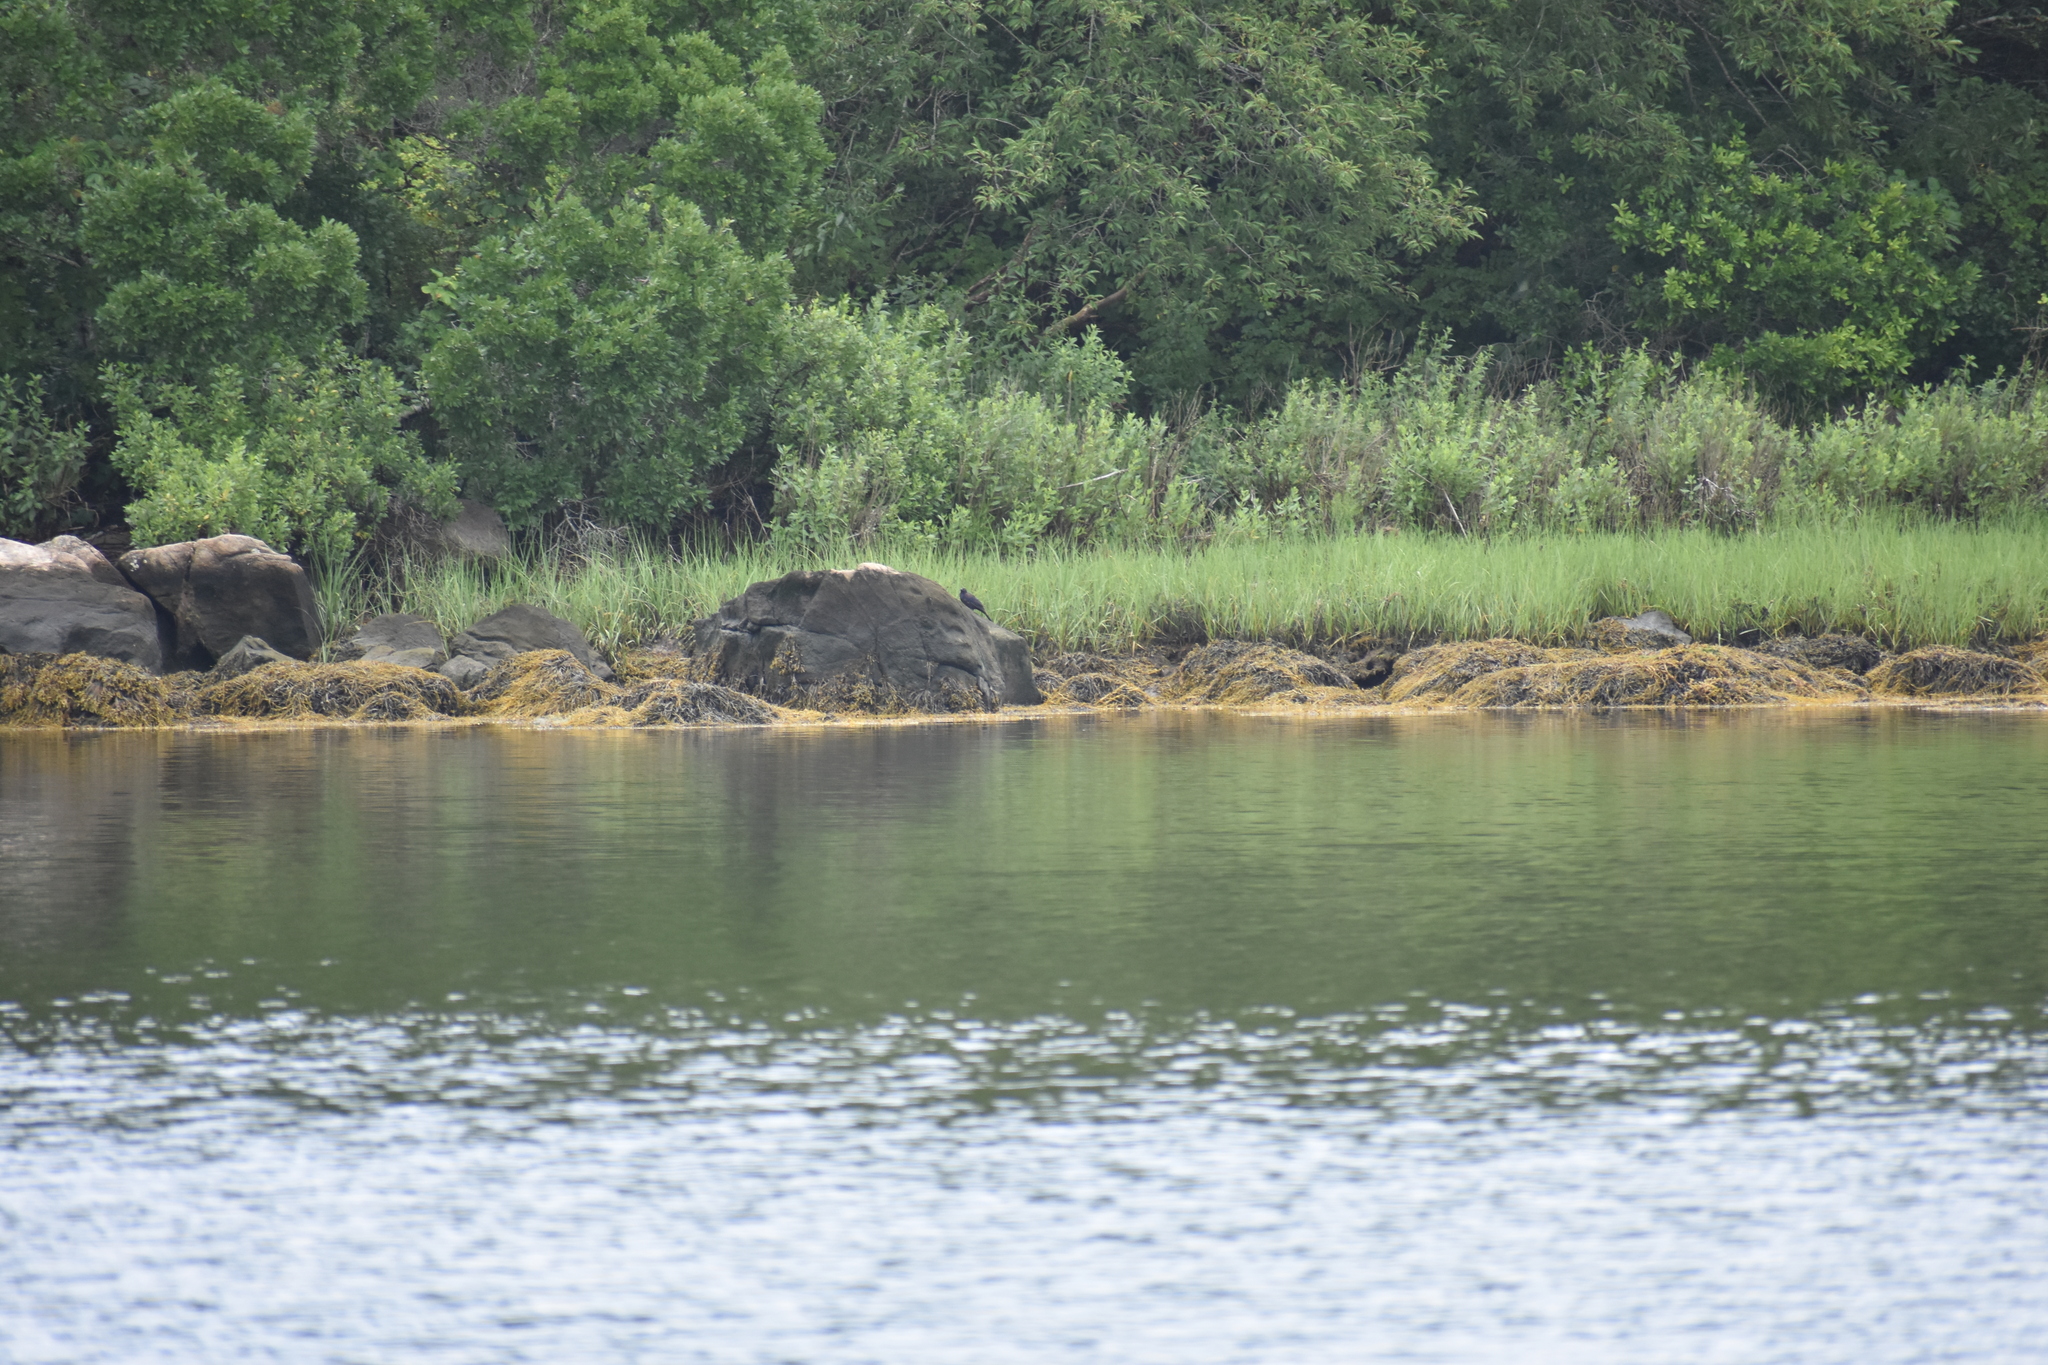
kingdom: Animalia
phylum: Chordata
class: Aves
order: Passeriformes
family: Icteridae
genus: Quiscalus
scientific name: Quiscalus quiscula
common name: Common grackle
